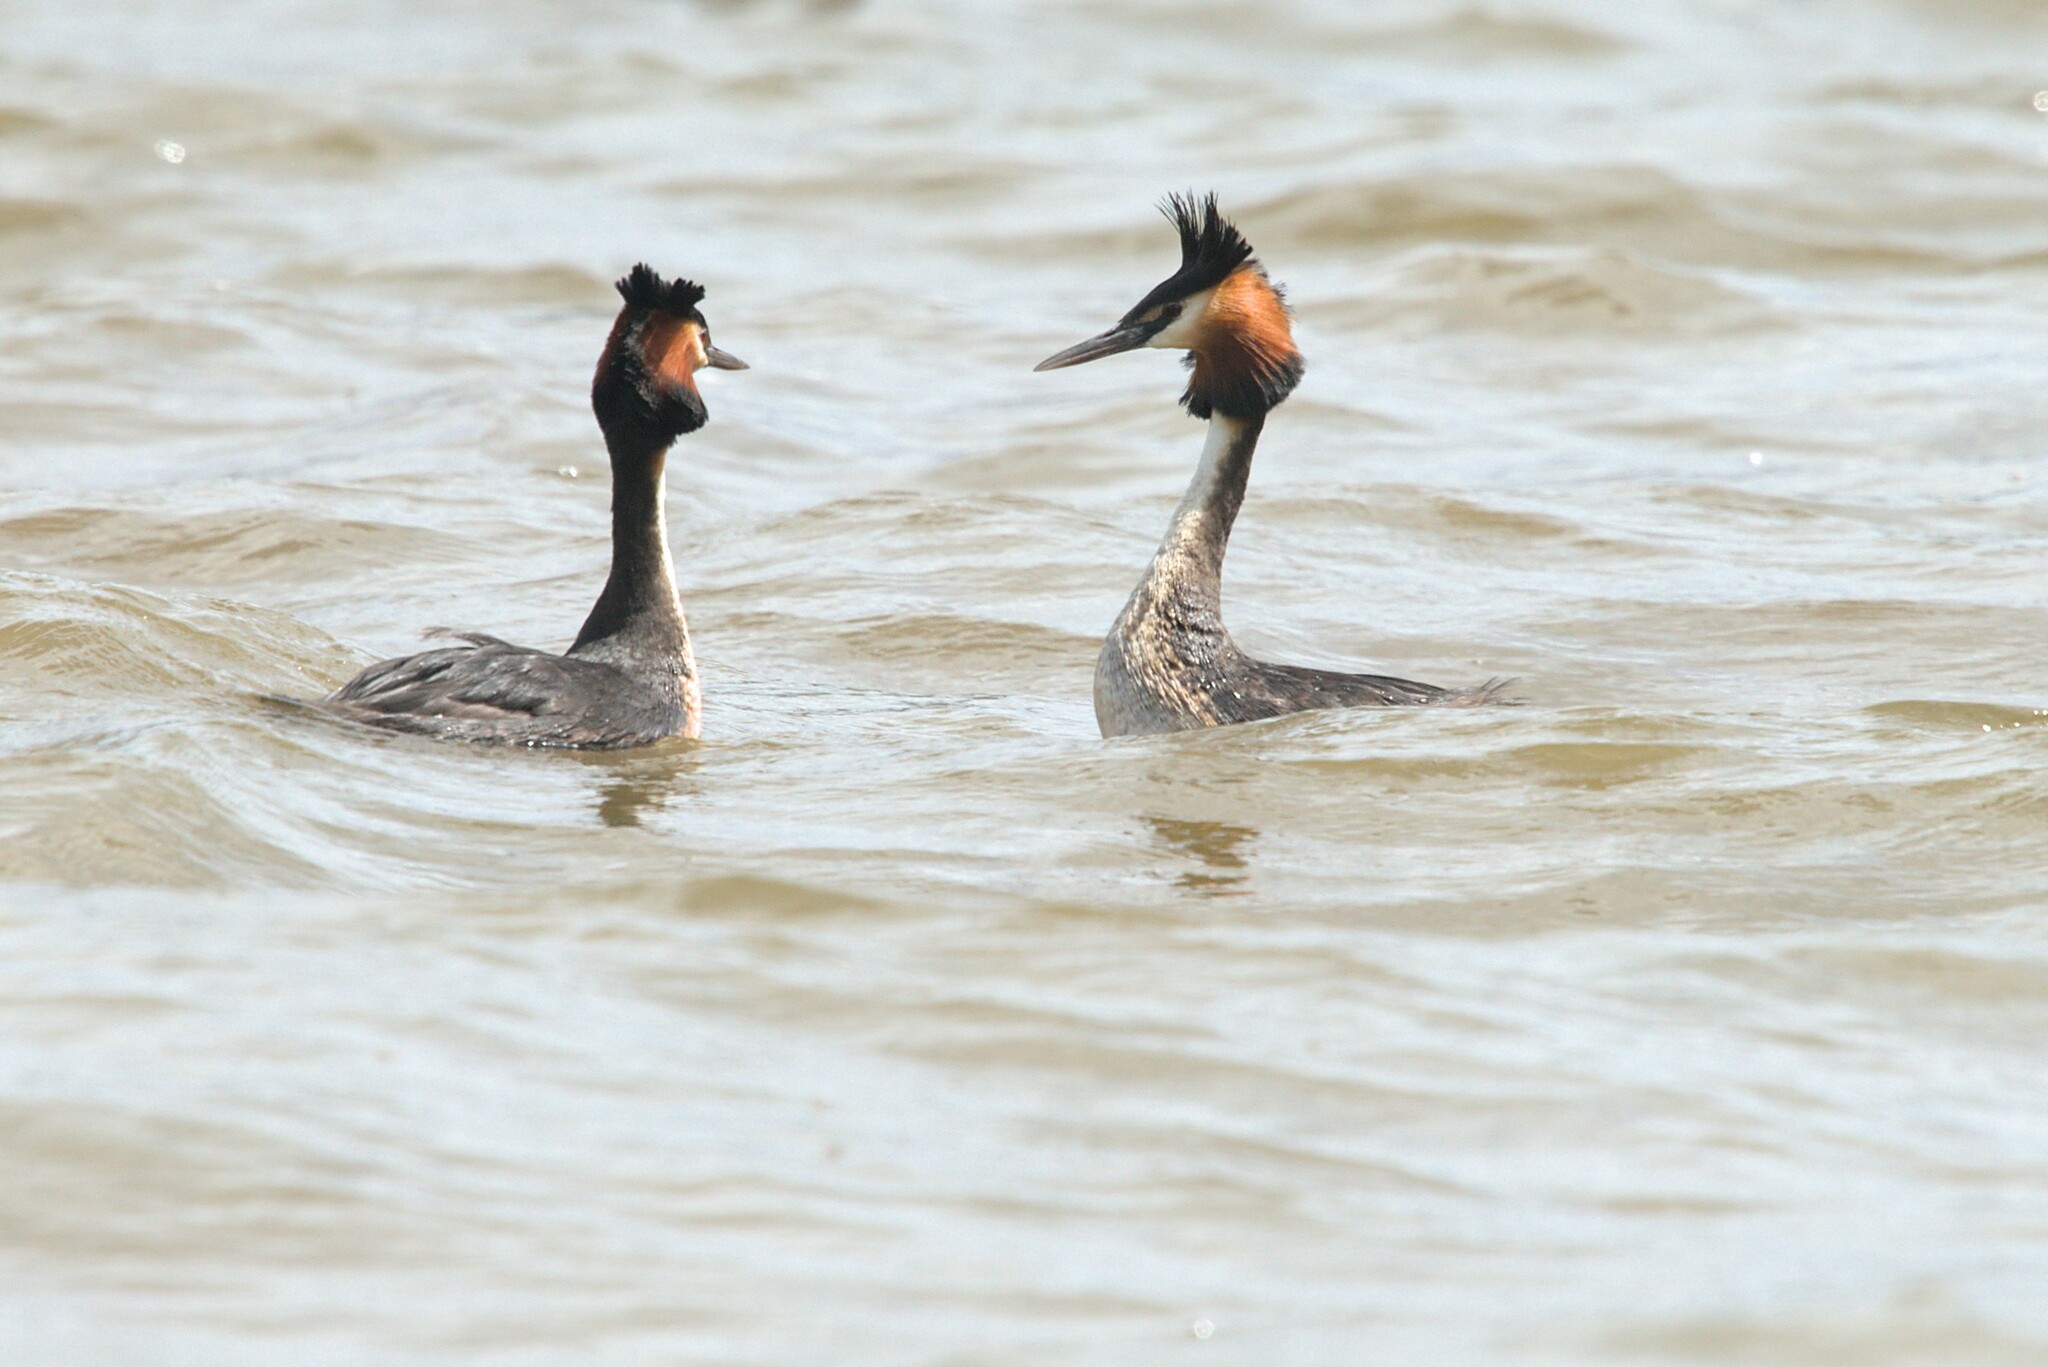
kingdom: Animalia
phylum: Chordata
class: Aves
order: Podicipediformes
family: Podicipedidae
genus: Podiceps
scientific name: Podiceps cristatus
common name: Great crested grebe
